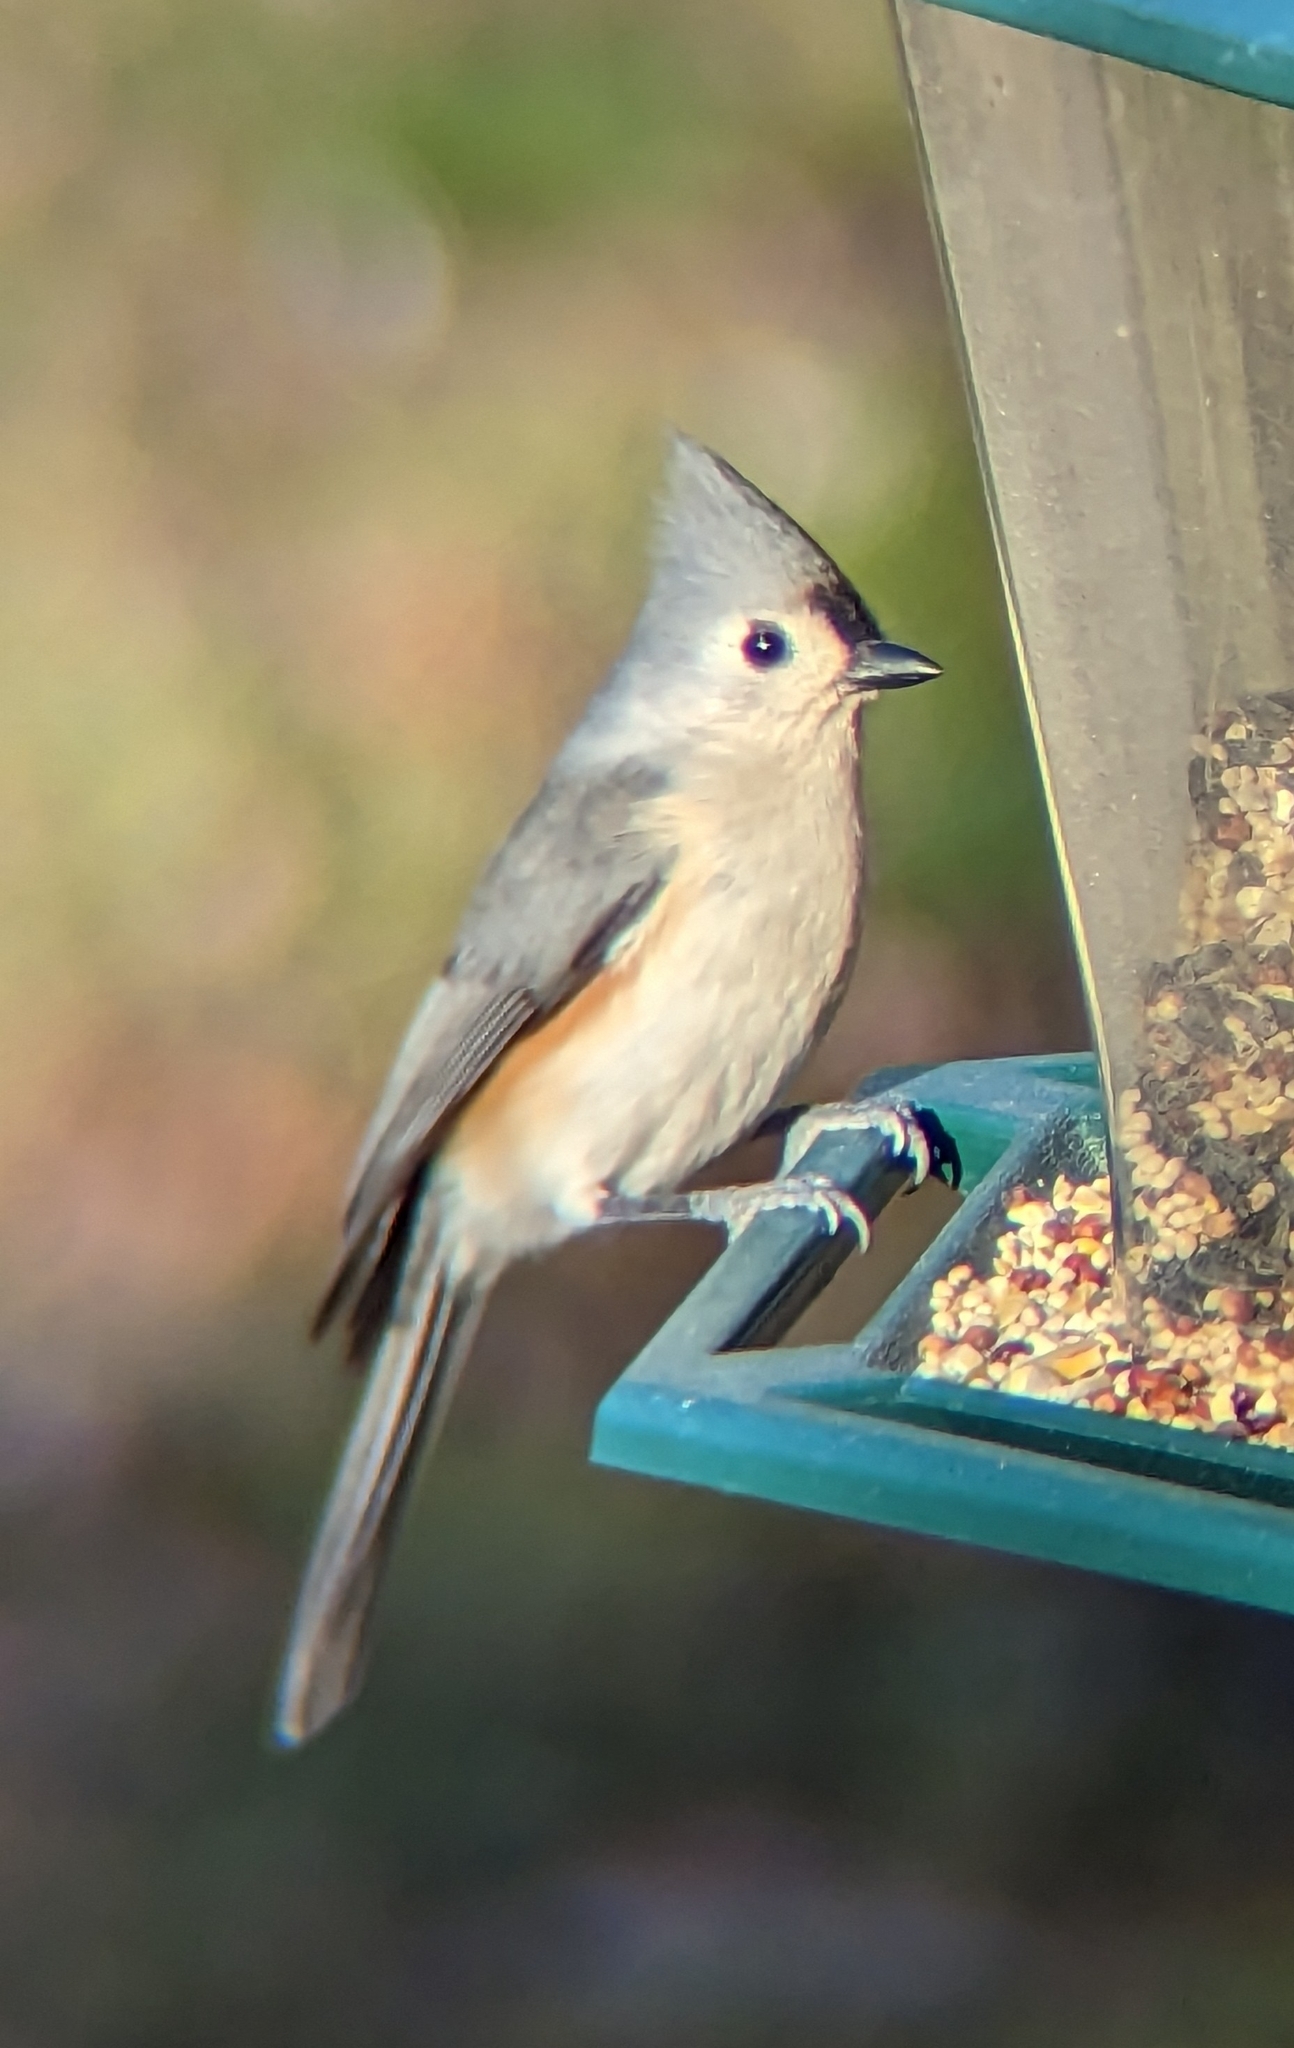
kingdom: Animalia
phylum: Chordata
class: Aves
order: Passeriformes
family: Paridae
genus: Baeolophus
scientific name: Baeolophus bicolor
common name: Tufted titmouse
